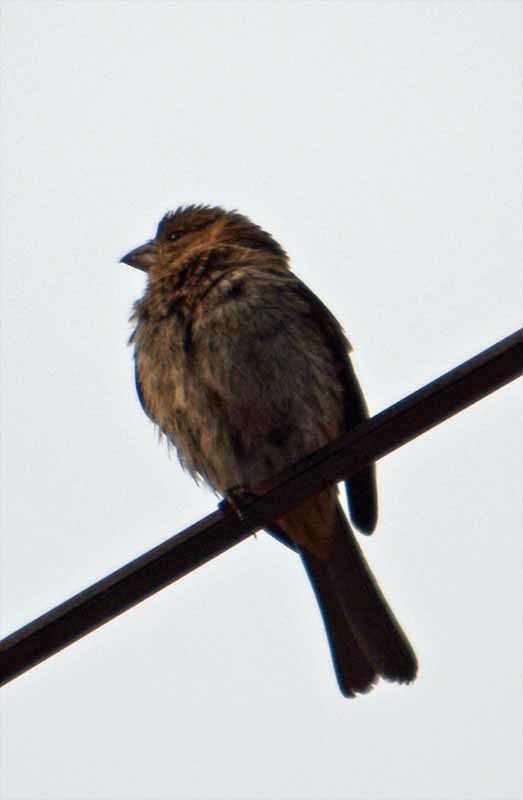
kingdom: Animalia
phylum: Chordata
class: Aves
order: Passeriformes
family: Fringillidae
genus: Haemorhous
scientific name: Haemorhous mexicanus
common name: House finch
